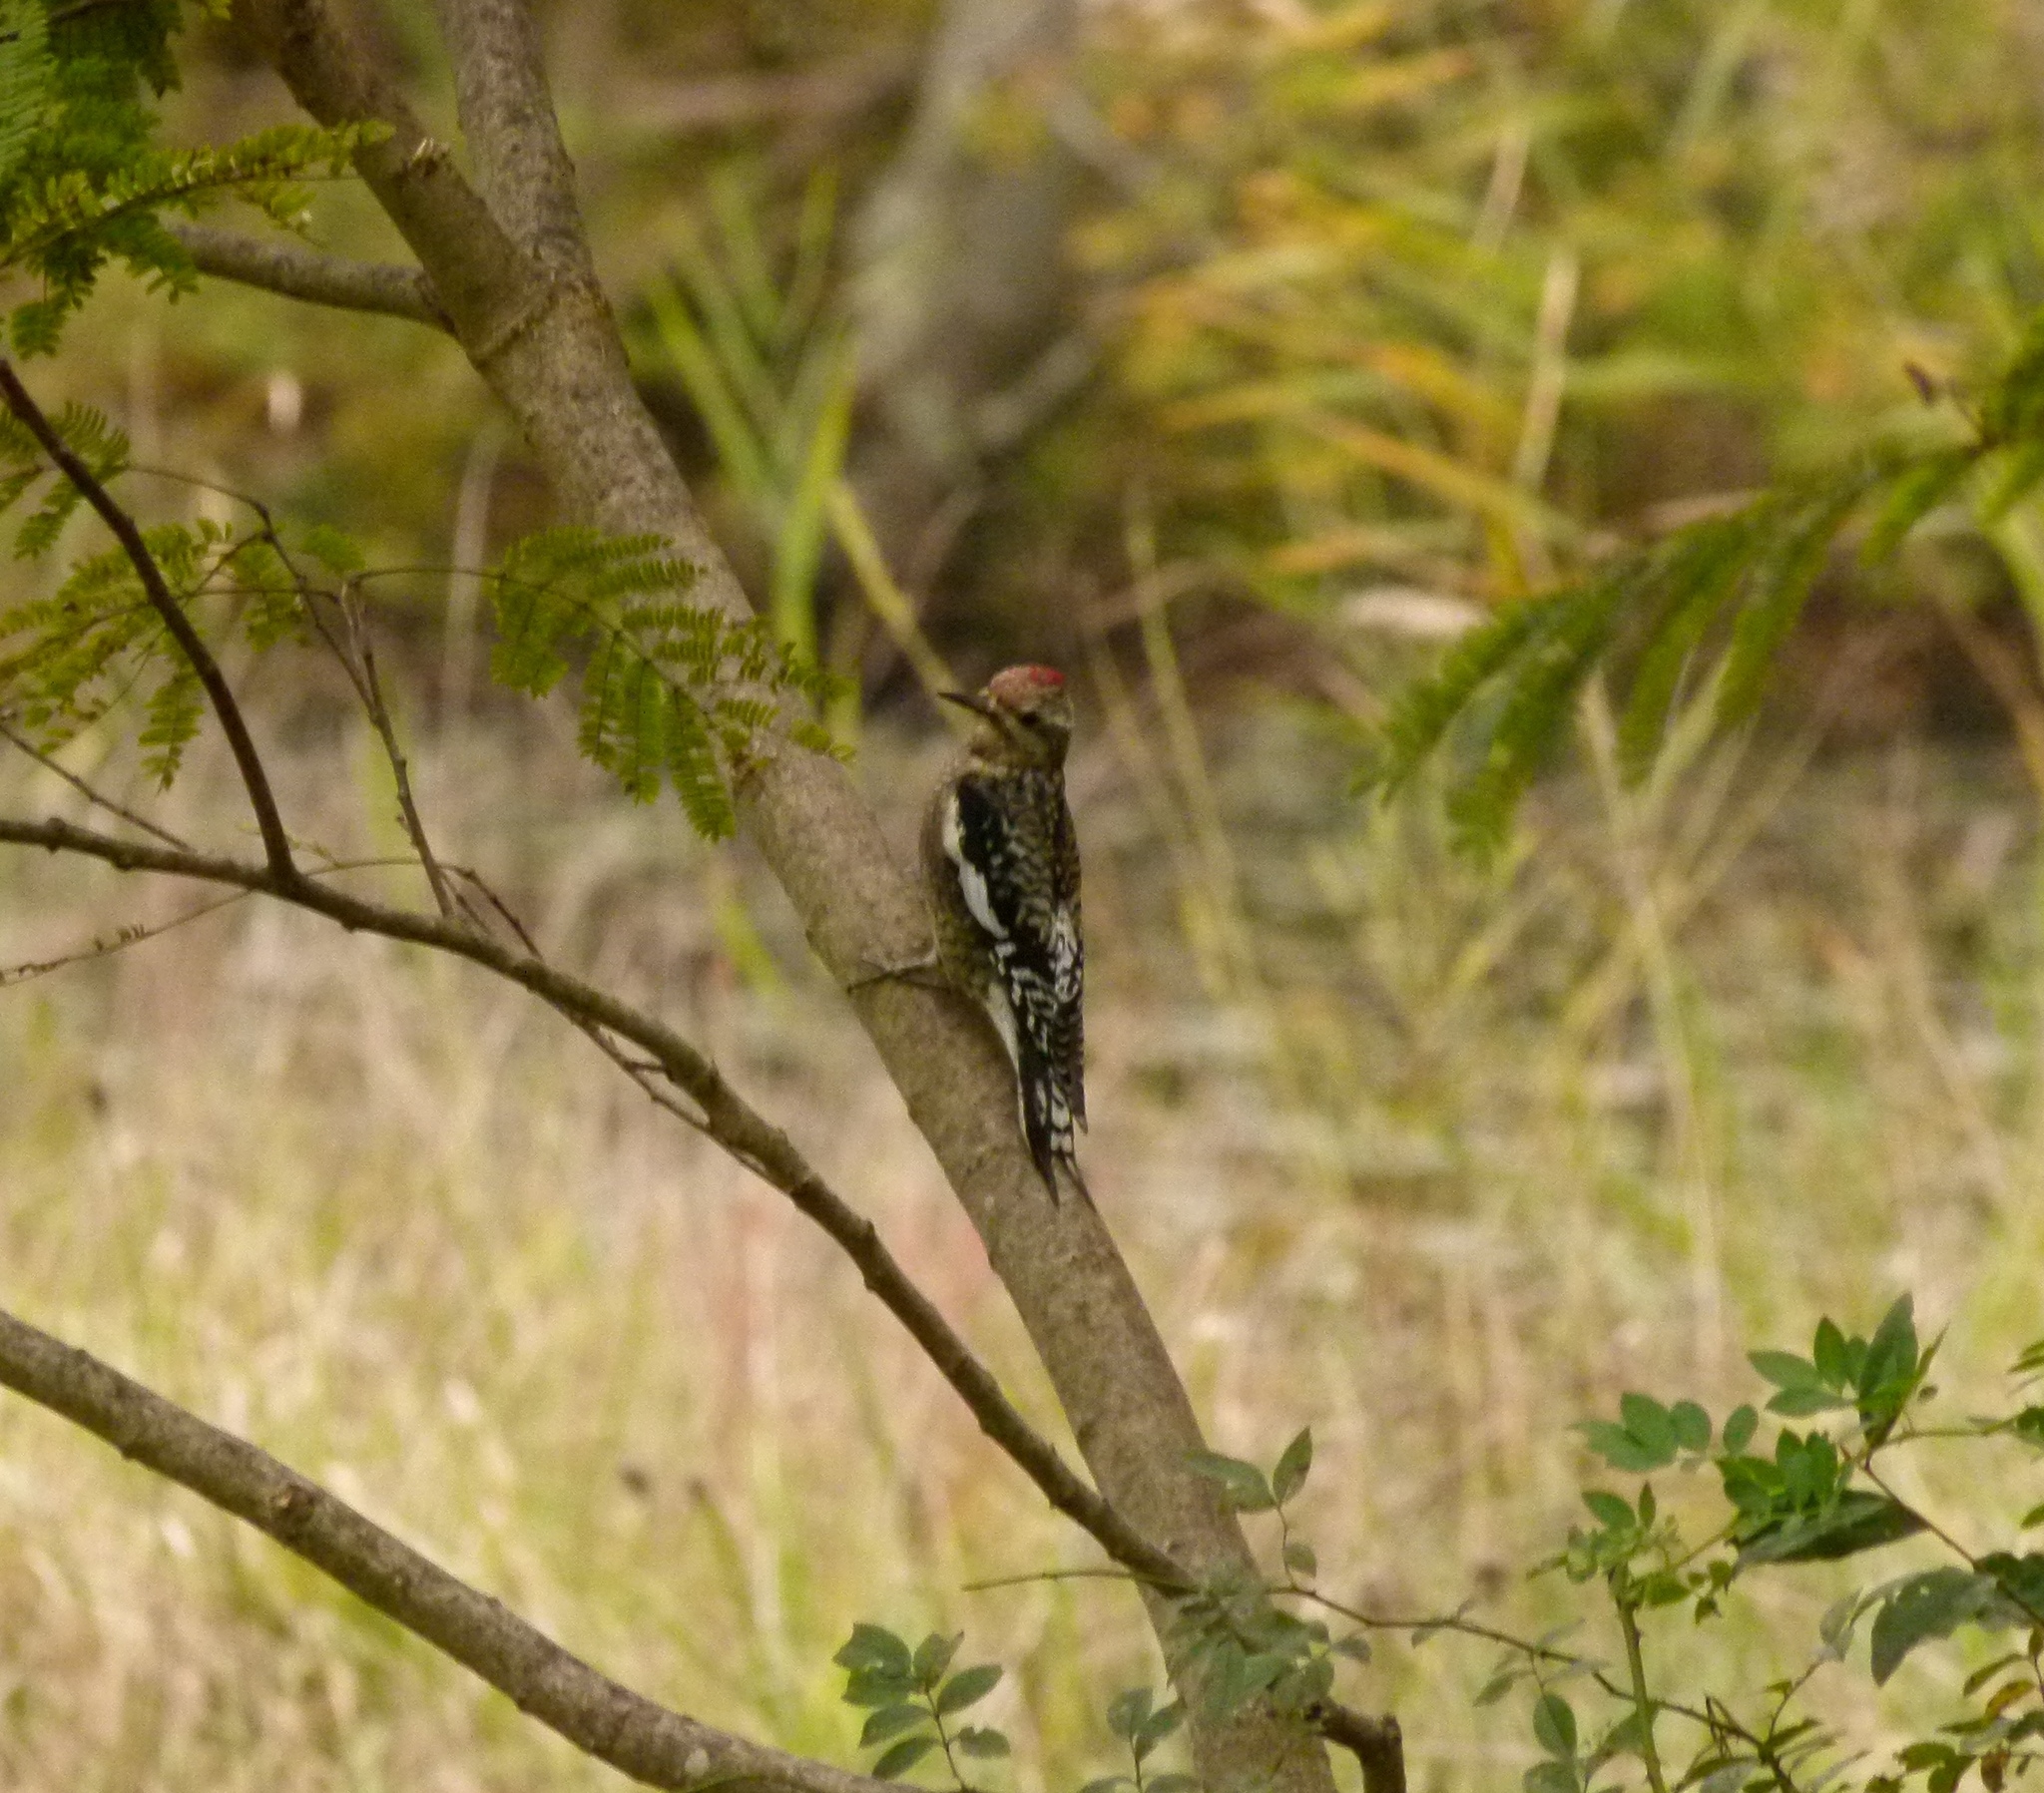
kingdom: Animalia
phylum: Chordata
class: Aves
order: Piciformes
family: Picidae
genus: Sphyrapicus
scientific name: Sphyrapicus varius
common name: Yellow-bellied sapsucker
